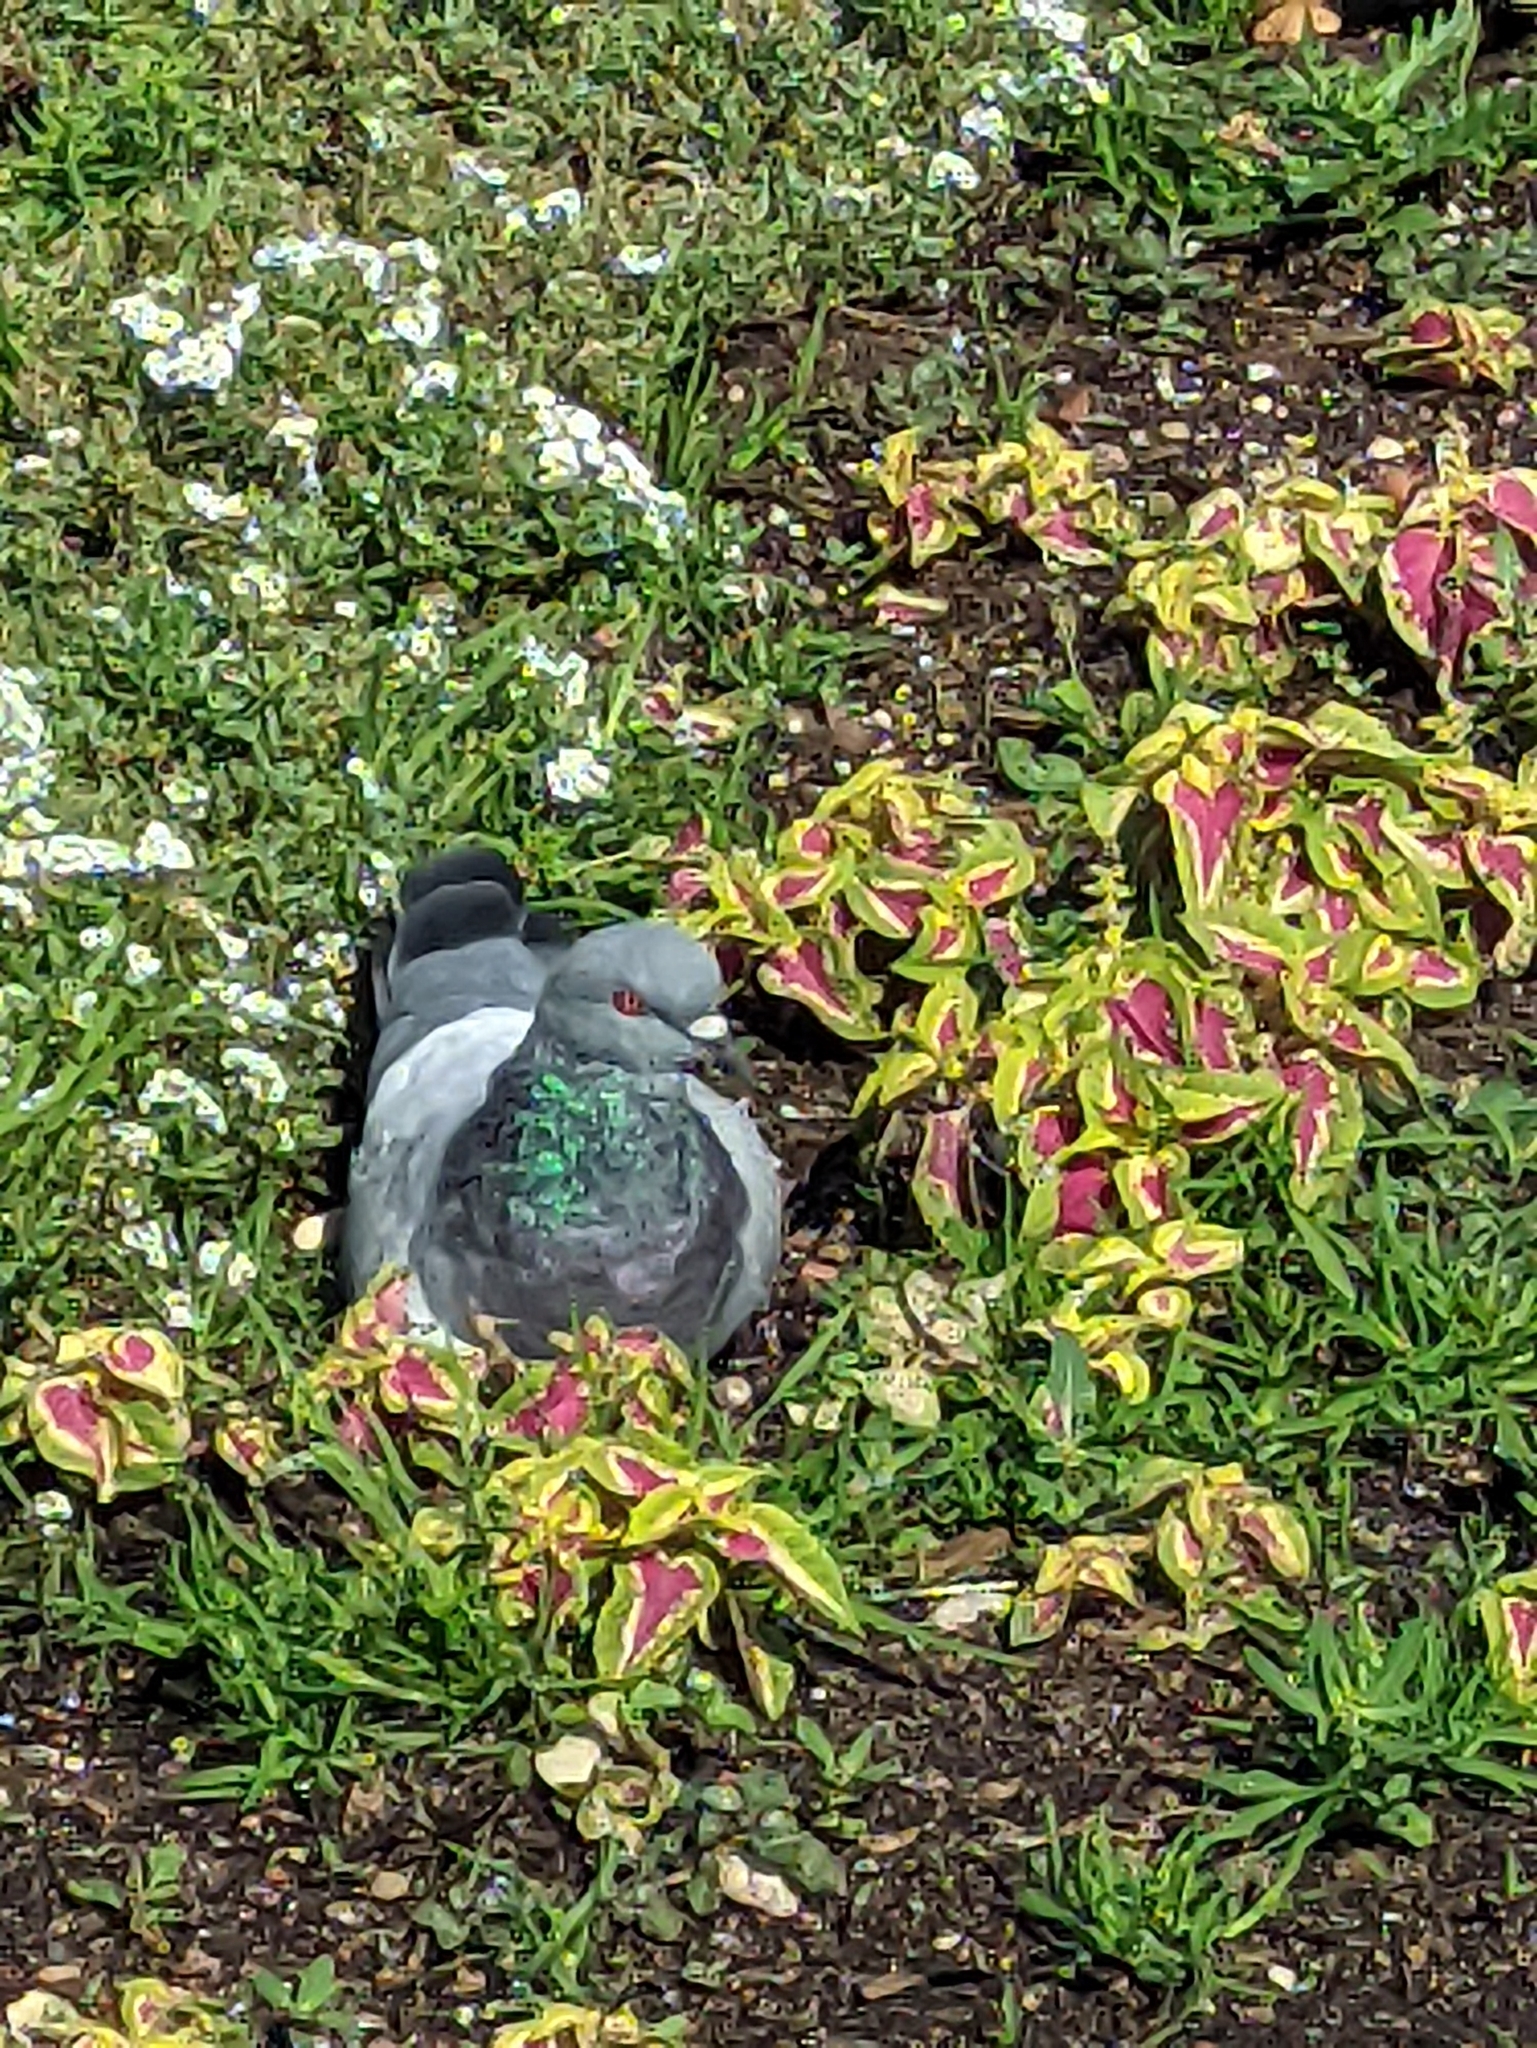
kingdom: Animalia
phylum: Chordata
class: Aves
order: Columbiformes
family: Columbidae
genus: Columba
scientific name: Columba livia
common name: Rock pigeon
